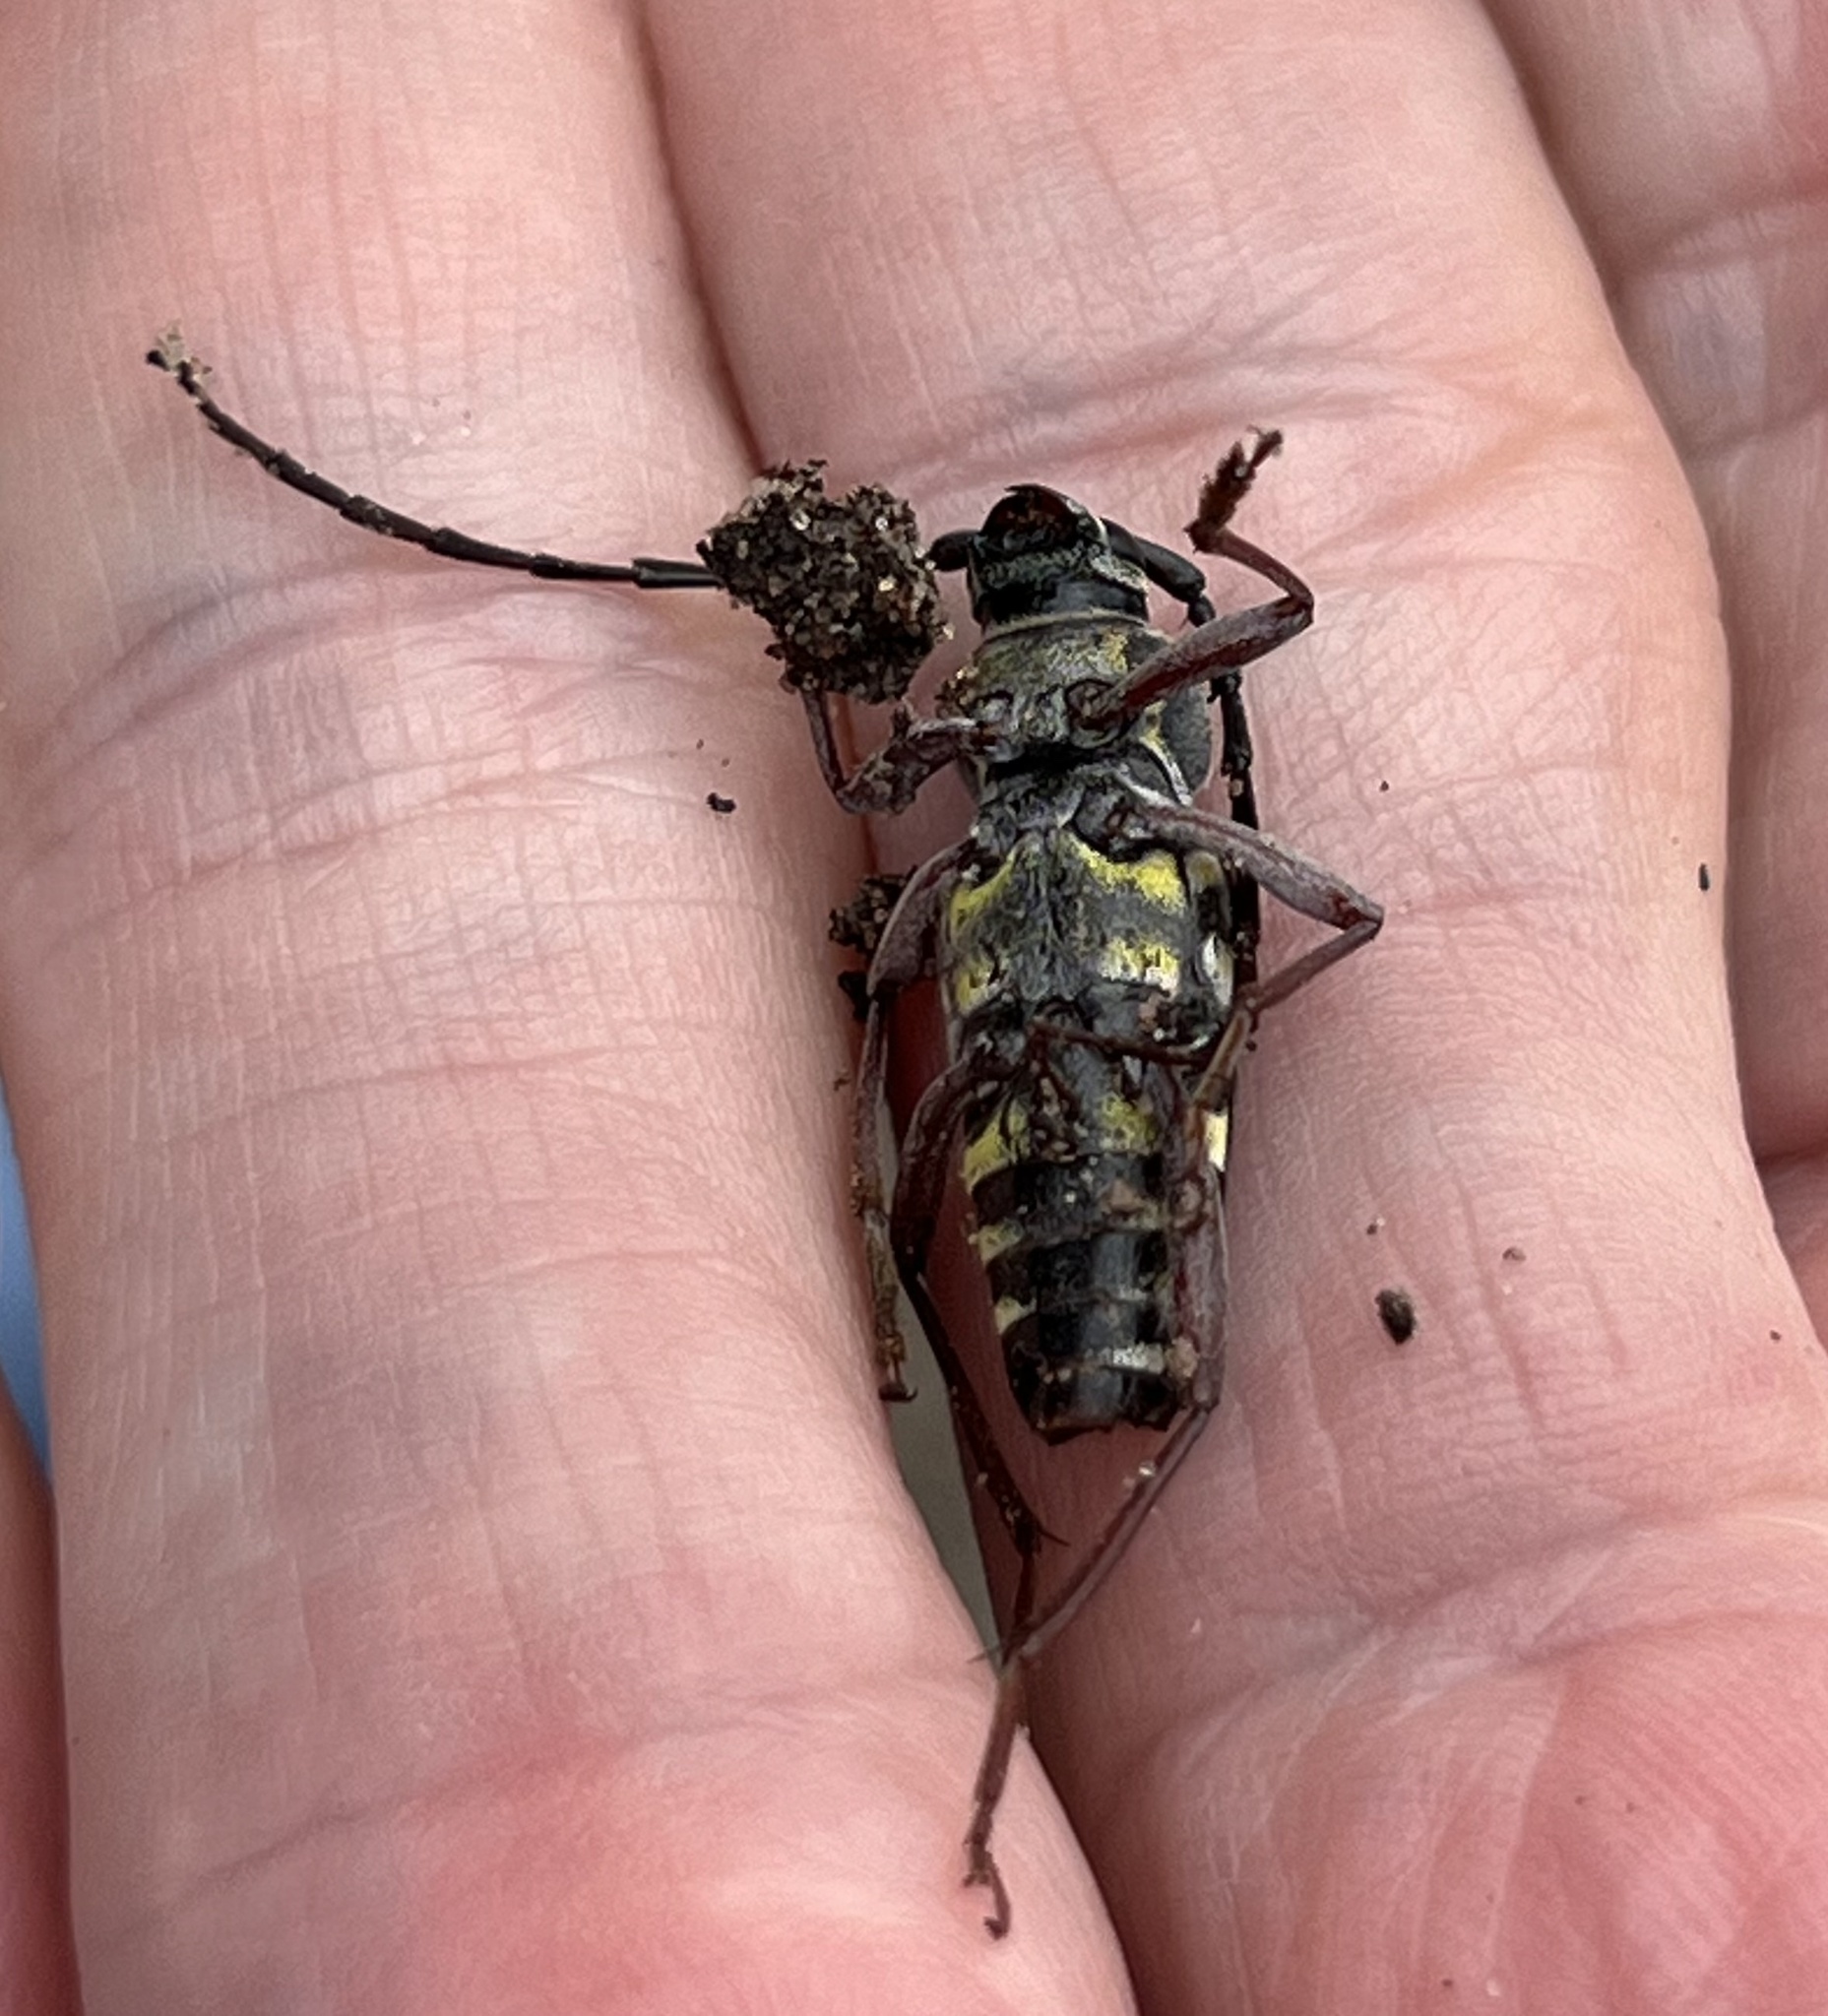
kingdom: Animalia
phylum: Arthropoda
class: Insecta
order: Coleoptera
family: Cerambycidae
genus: Megacyllene
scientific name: Megacyllene caryae
